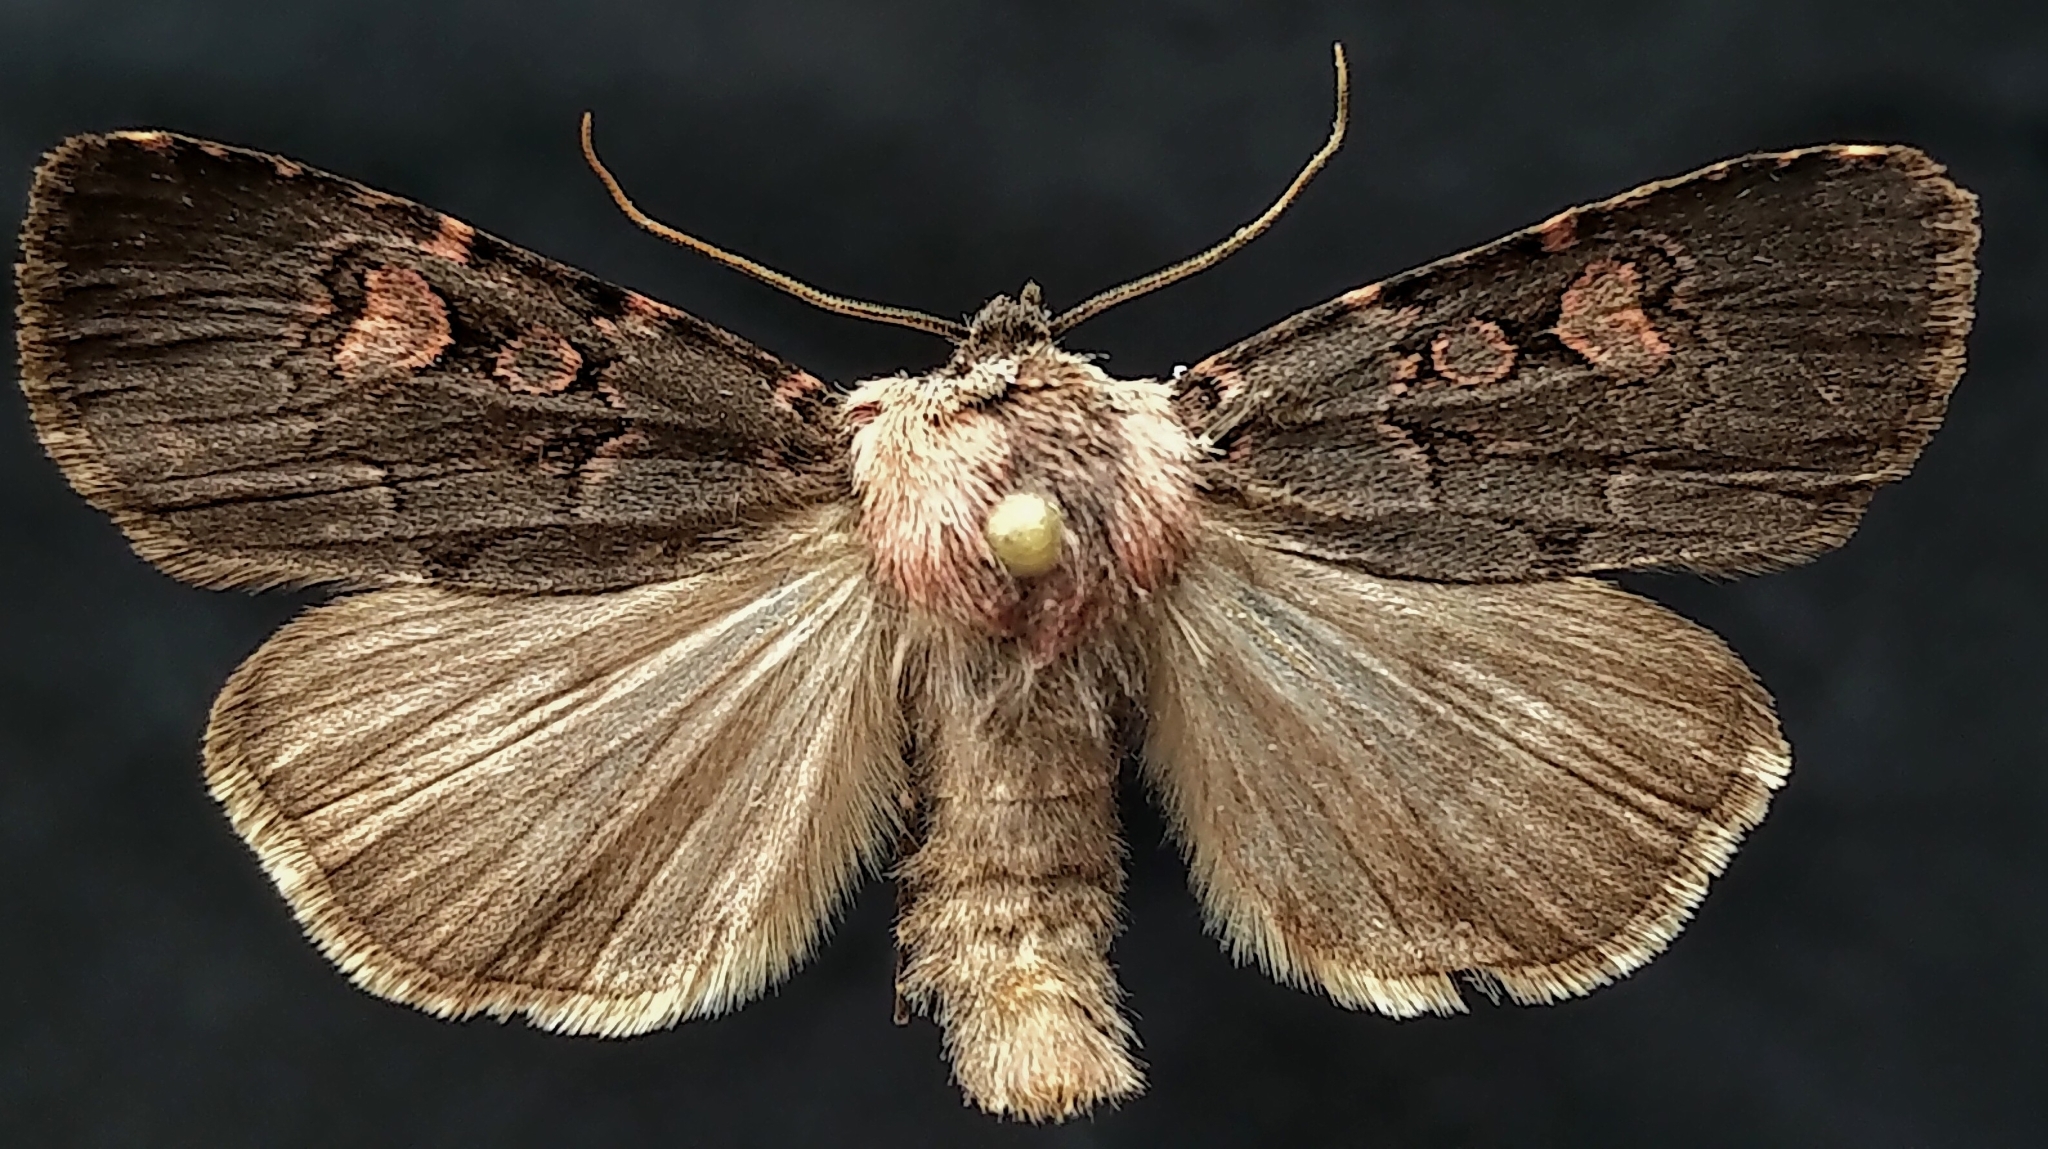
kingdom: Animalia
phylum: Arthropoda
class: Insecta
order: Lepidoptera
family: Noctuidae
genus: Feltia
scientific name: Feltia nigrita
